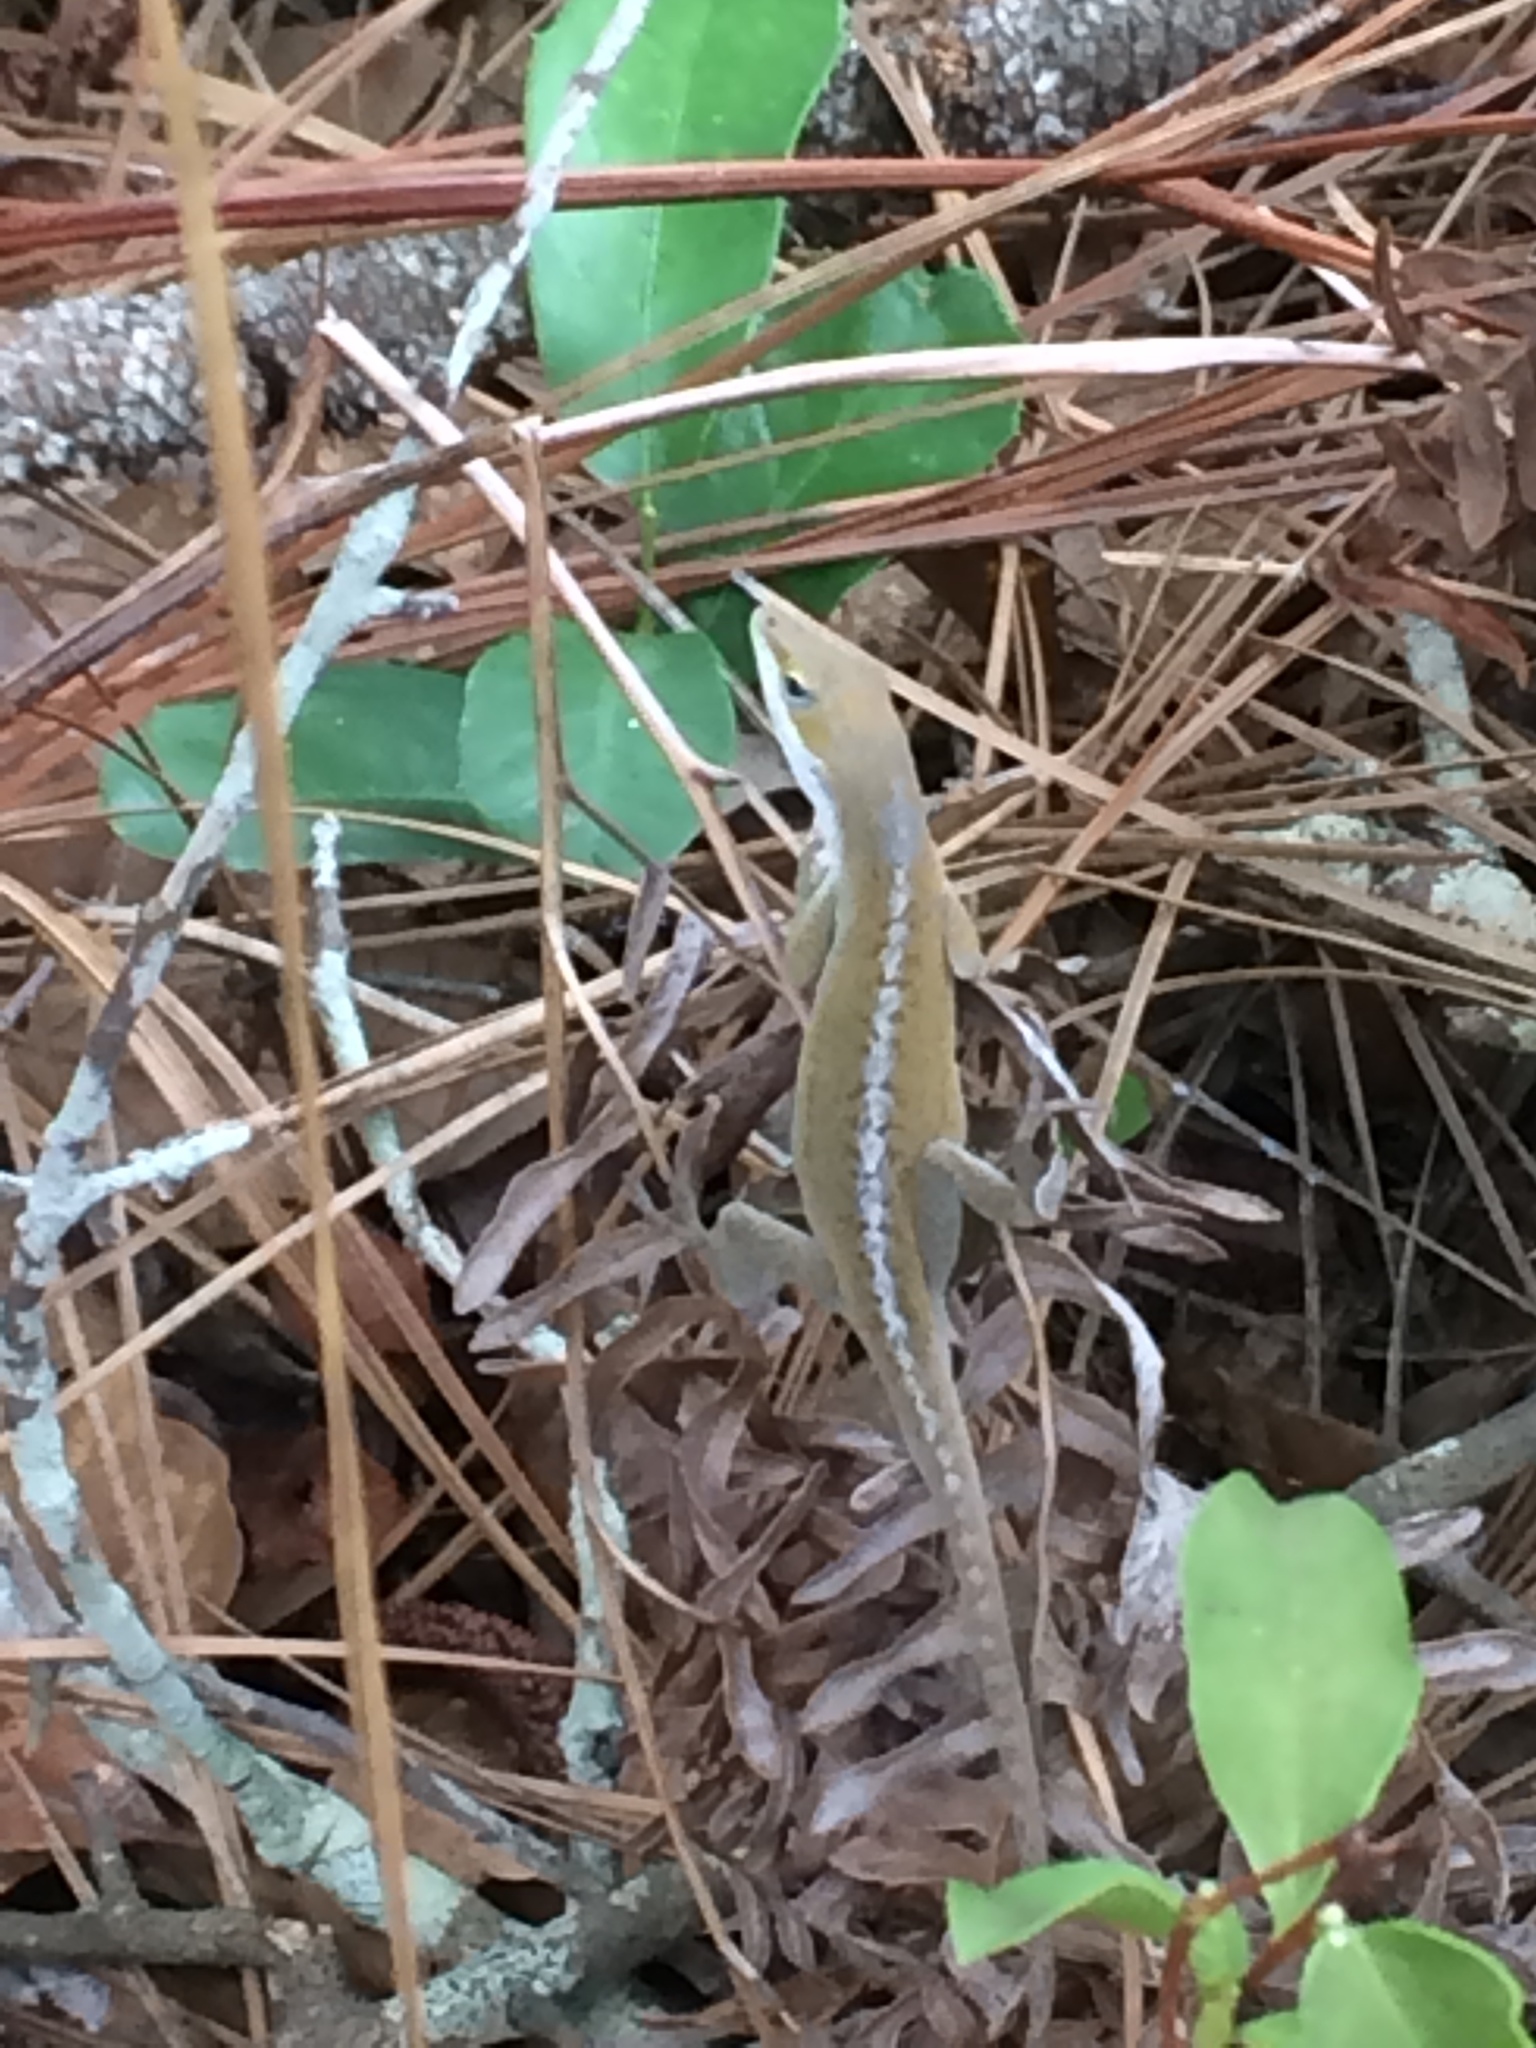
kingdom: Animalia
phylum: Chordata
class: Squamata
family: Dactyloidae
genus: Anolis
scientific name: Anolis carolinensis
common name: Green anole
